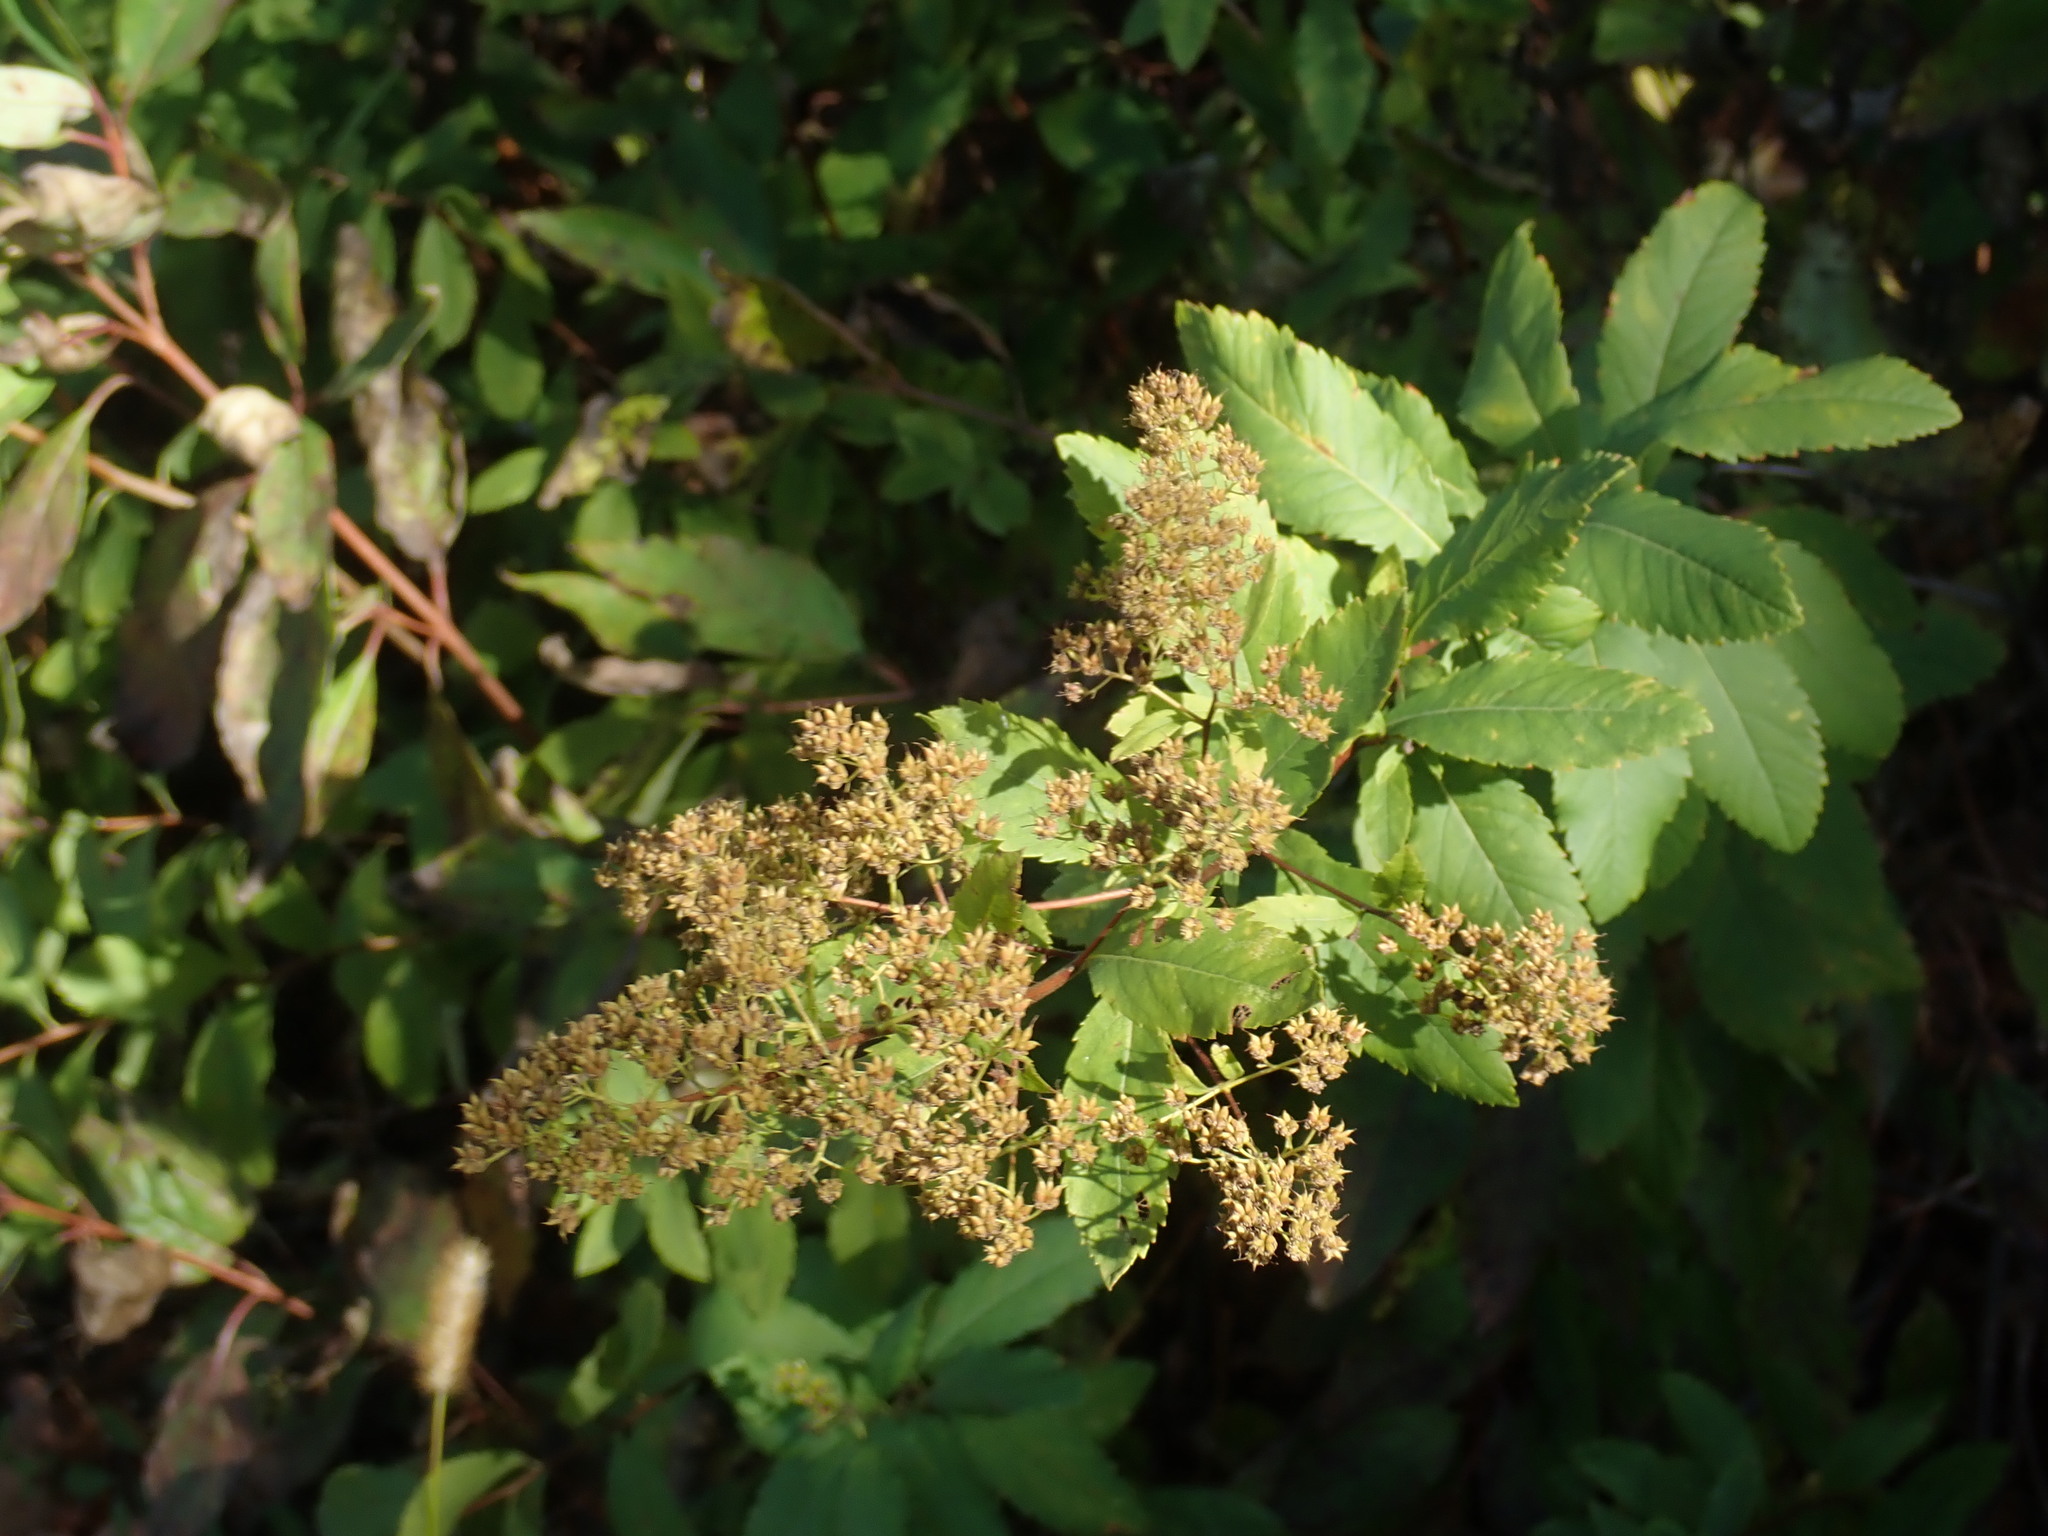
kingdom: Plantae
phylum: Tracheophyta
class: Magnoliopsida
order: Rosales
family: Rosaceae
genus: Spiraea
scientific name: Spiraea alba
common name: Pale bridewort
